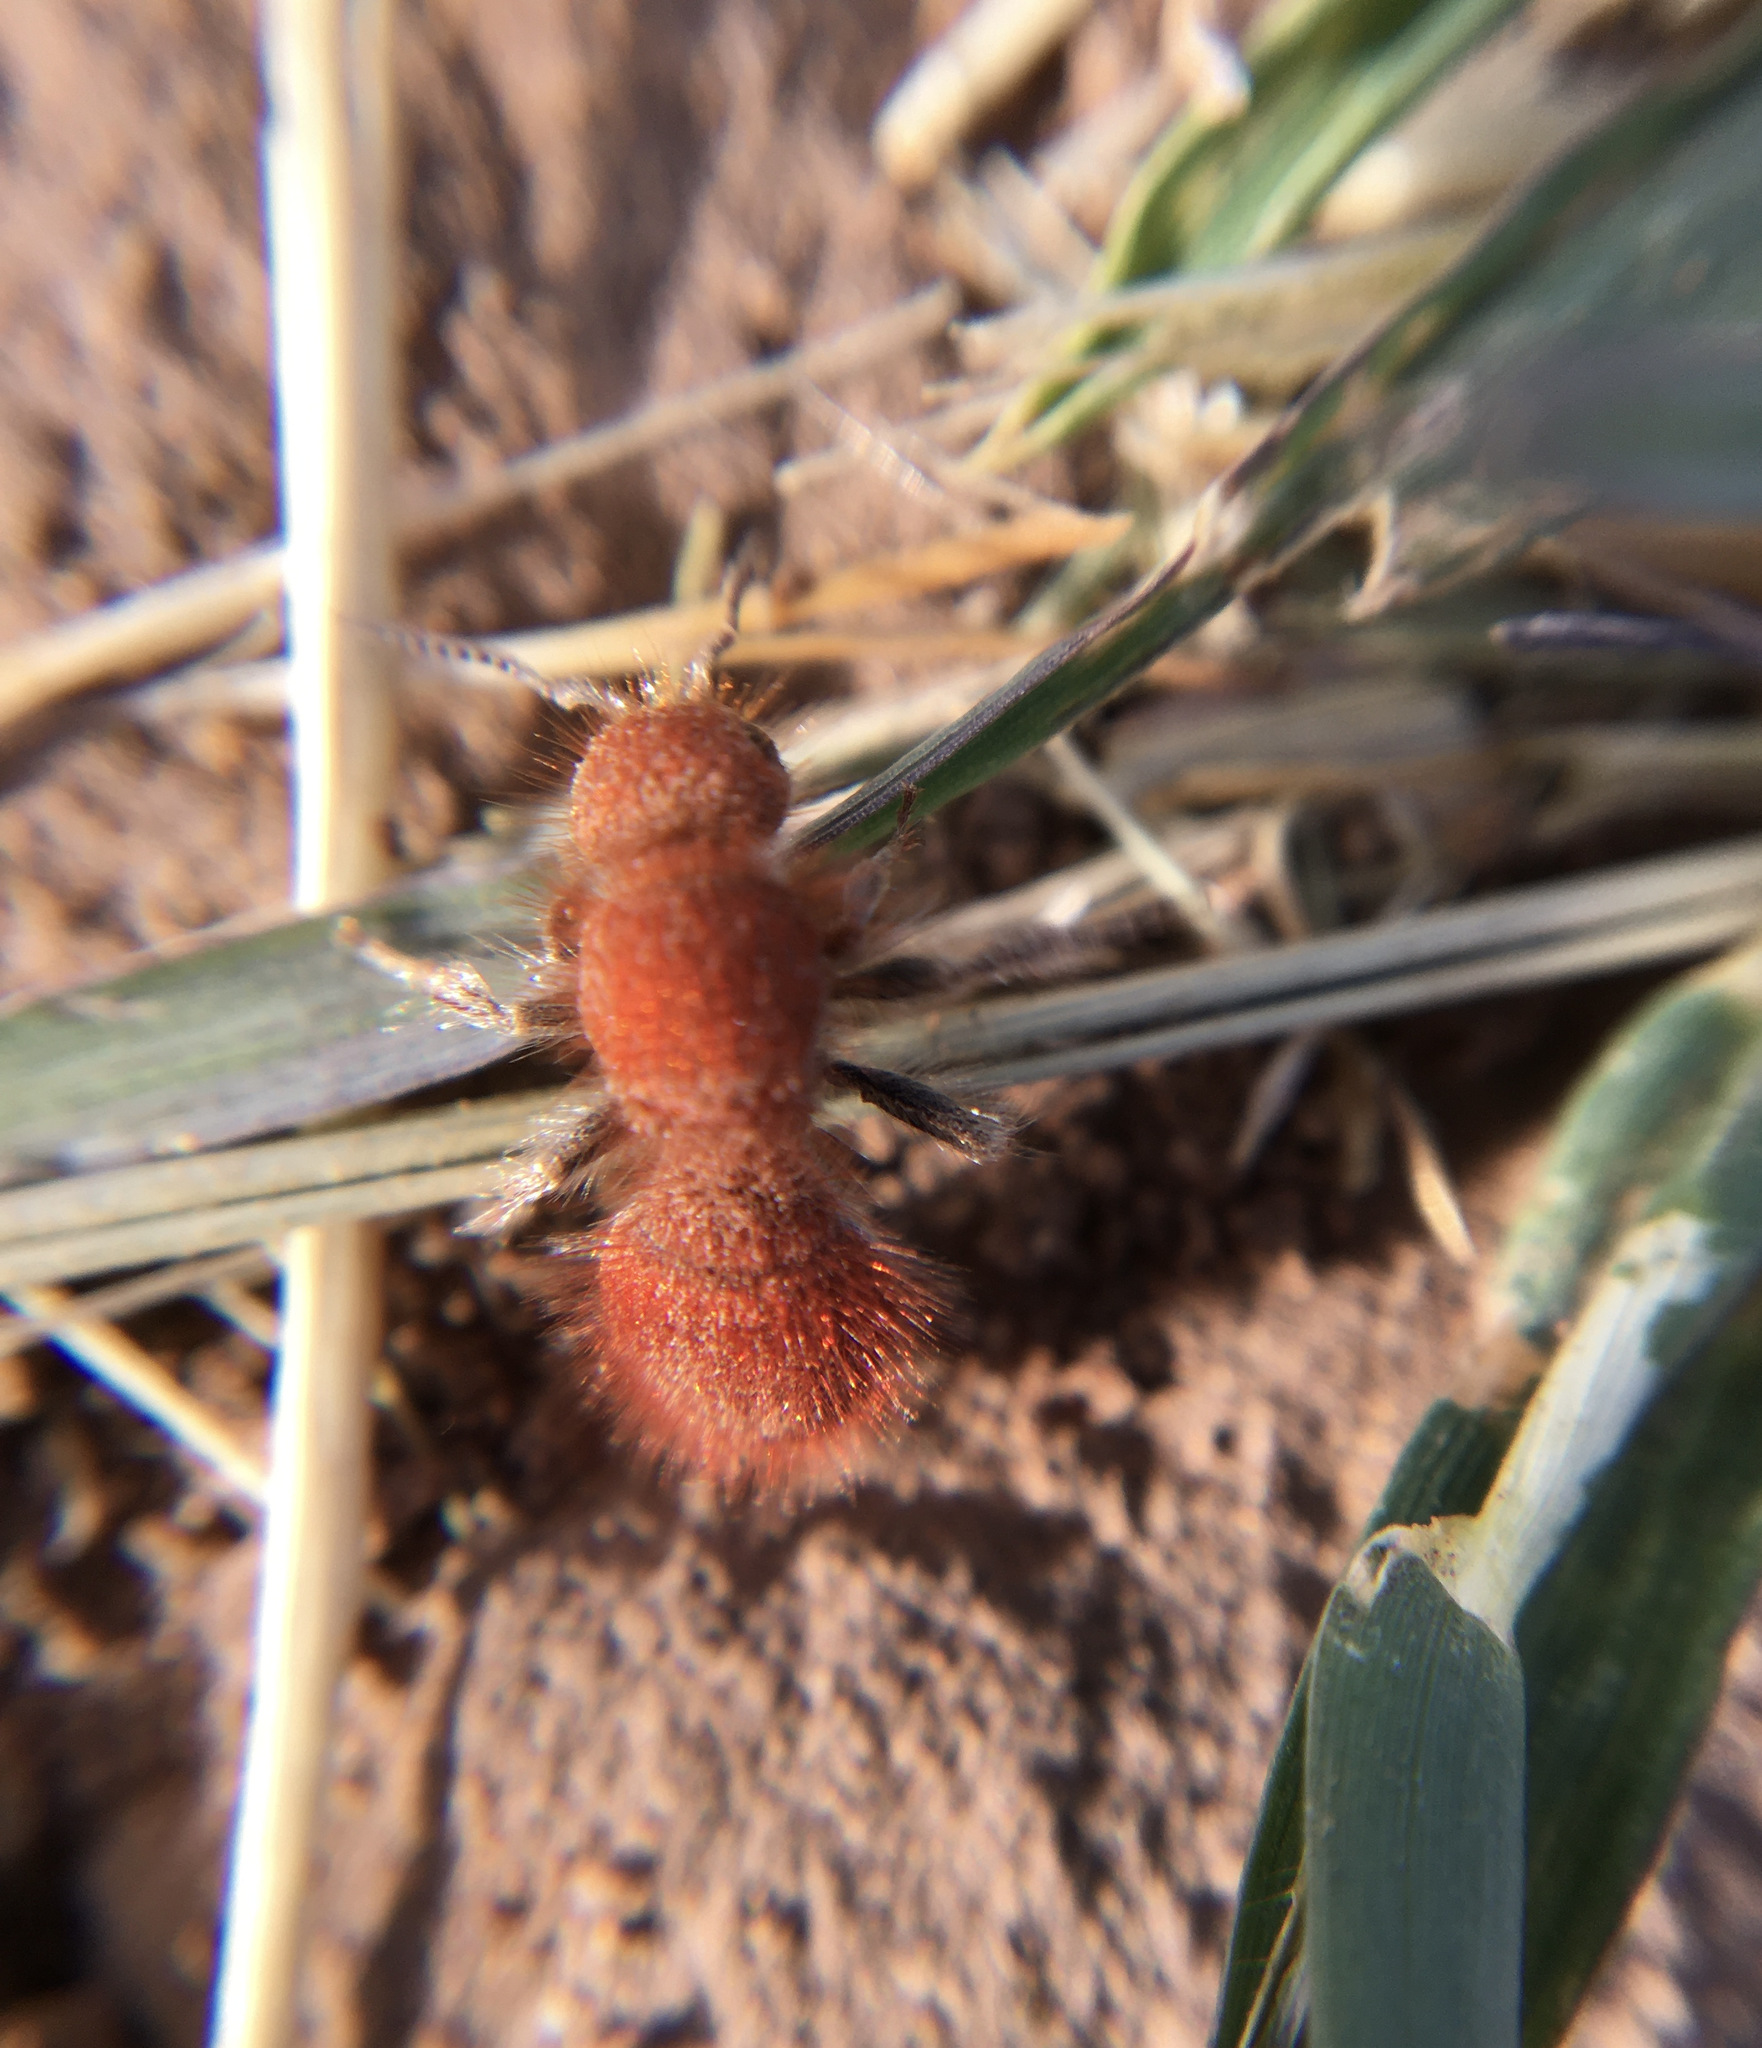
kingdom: Animalia
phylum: Arthropoda
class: Insecta
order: Hymenoptera
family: Mutillidae
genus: Sphaeropthalma
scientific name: Sphaeropthalma unicolor
